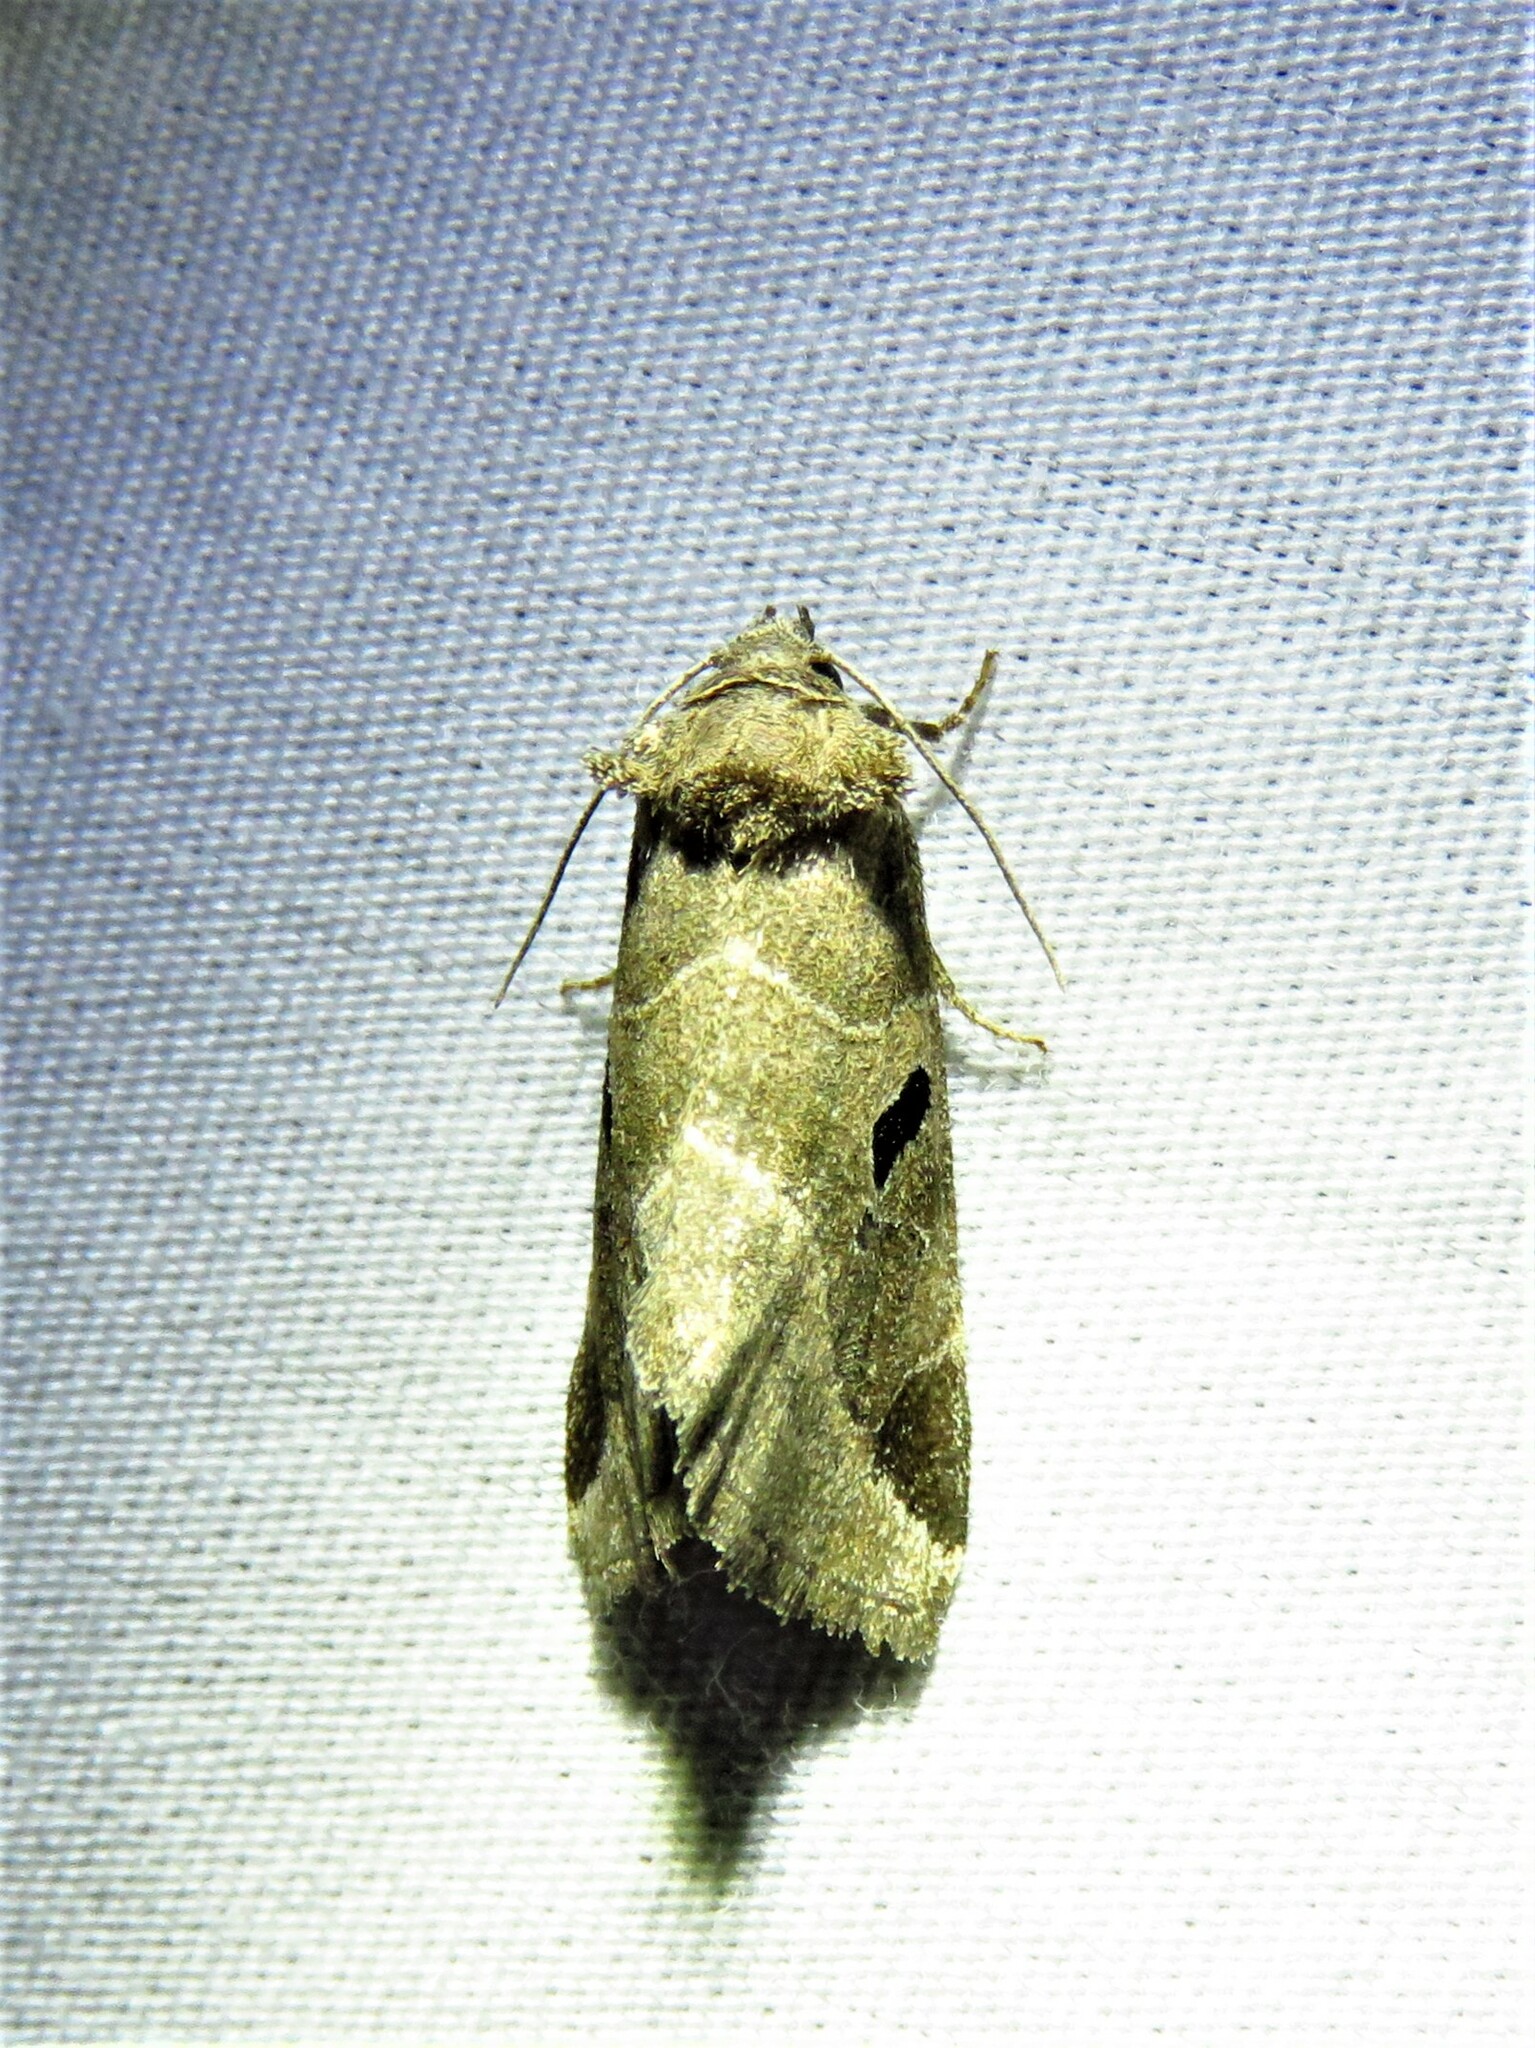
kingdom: Animalia
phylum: Arthropoda
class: Insecta
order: Lepidoptera
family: Noctuidae
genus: Plagiomimicus
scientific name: Plagiomimicus pityochromus
